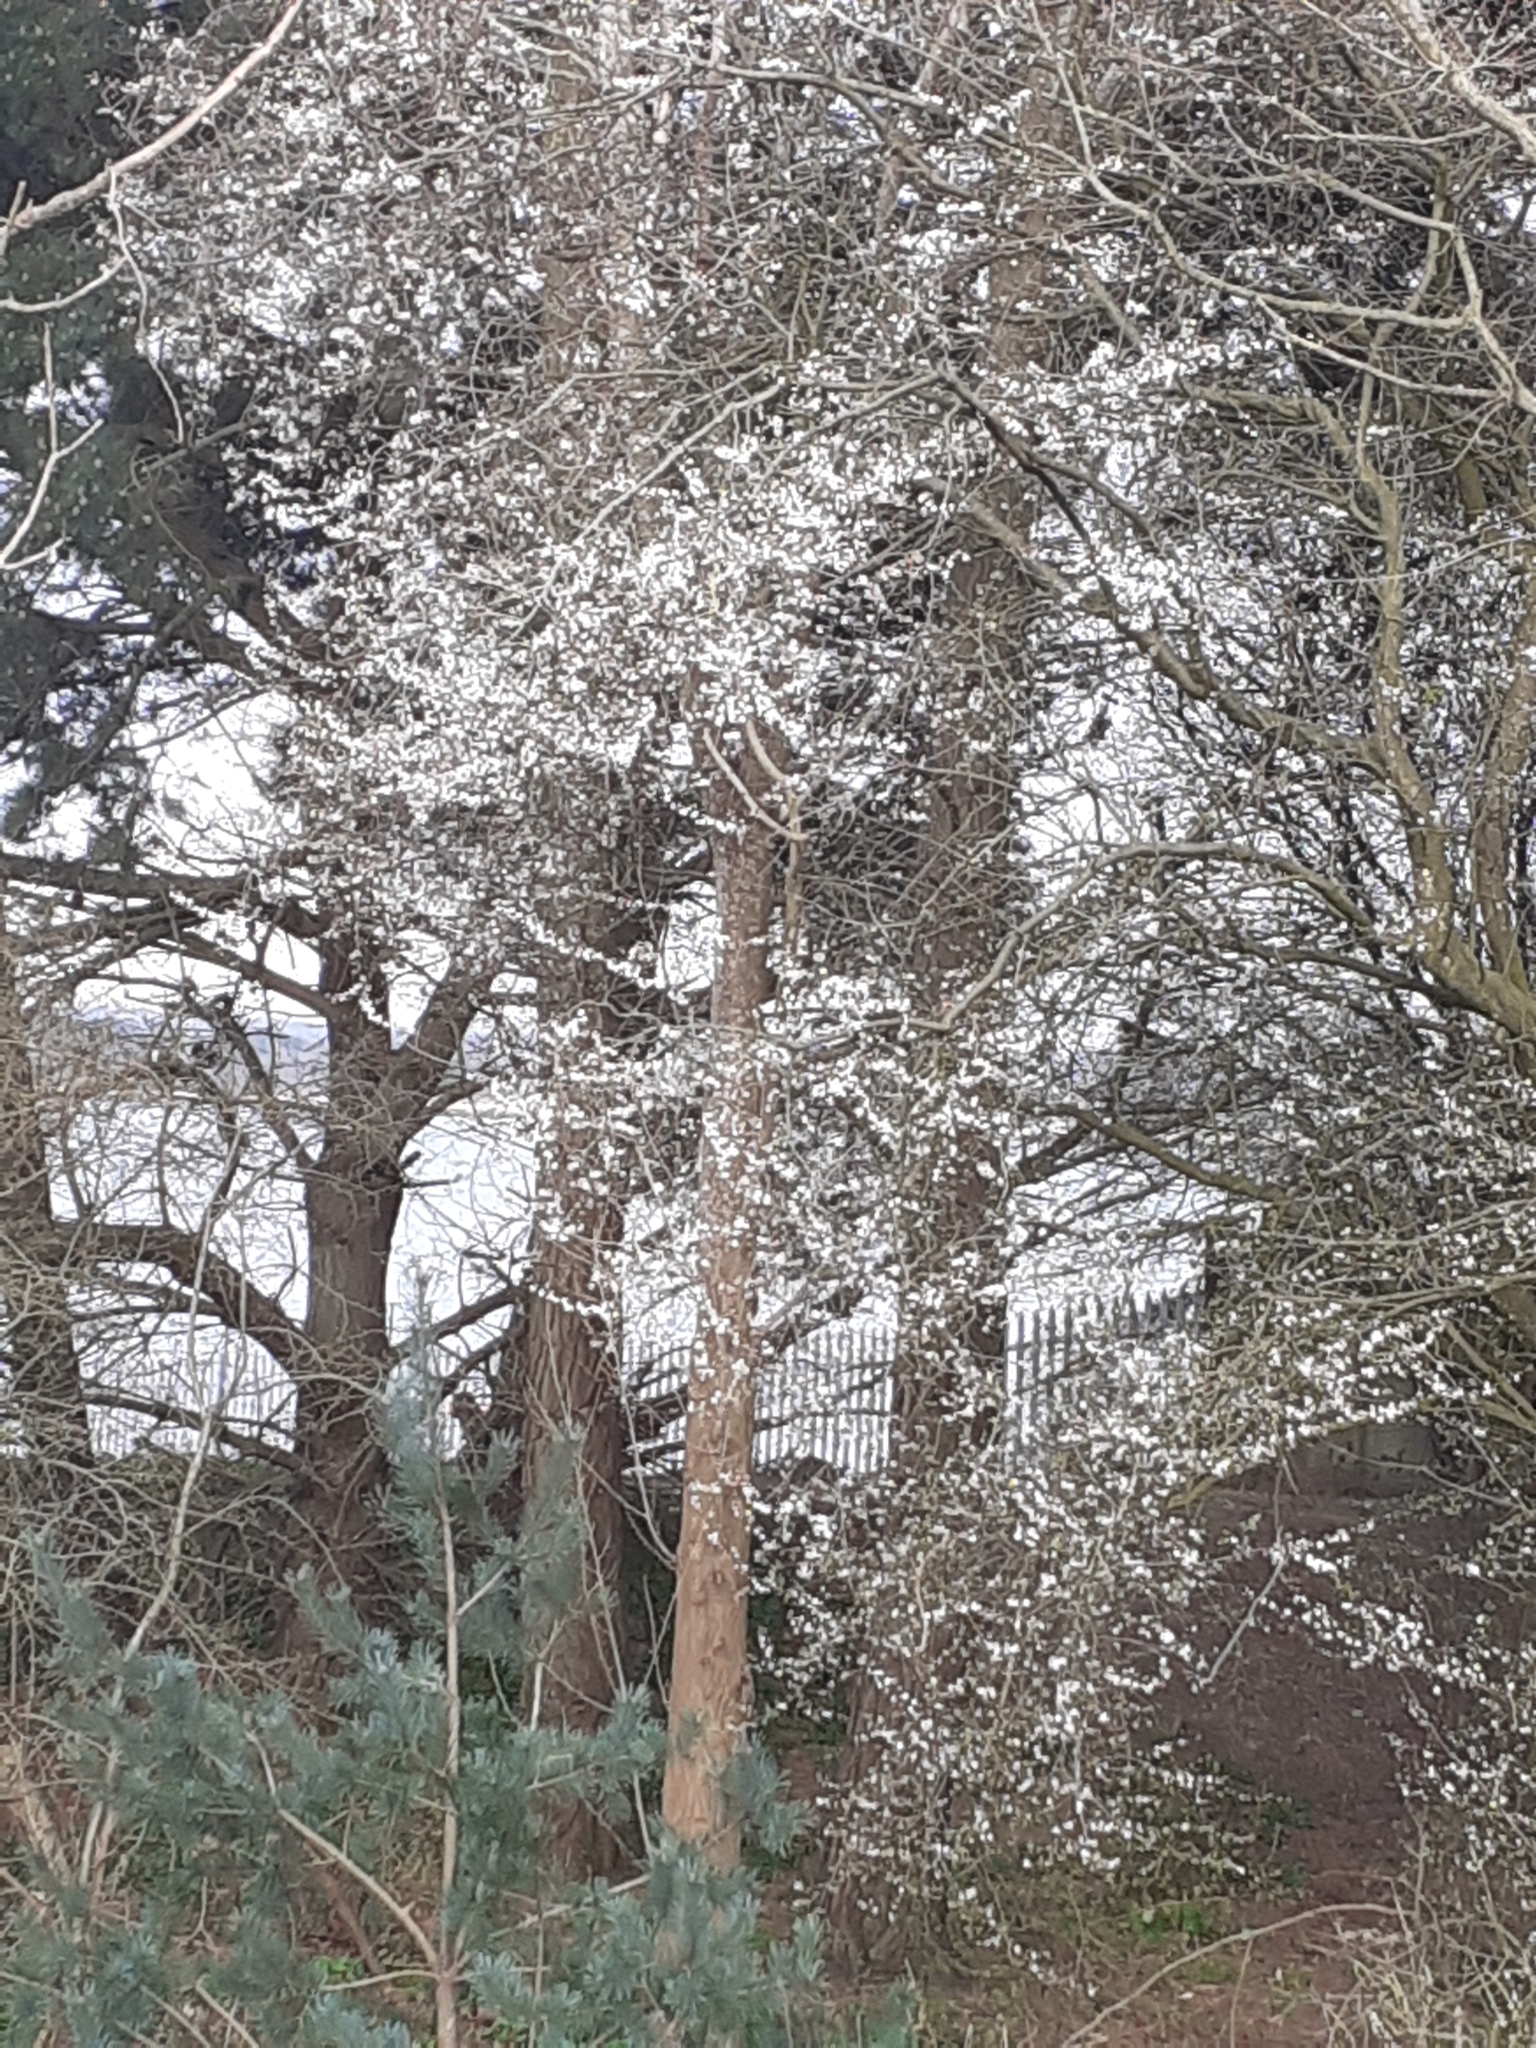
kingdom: Plantae
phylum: Tracheophyta
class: Magnoliopsida
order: Rosales
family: Rosaceae
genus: Prunus
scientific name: Prunus cerasifera
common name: Cherry plum
